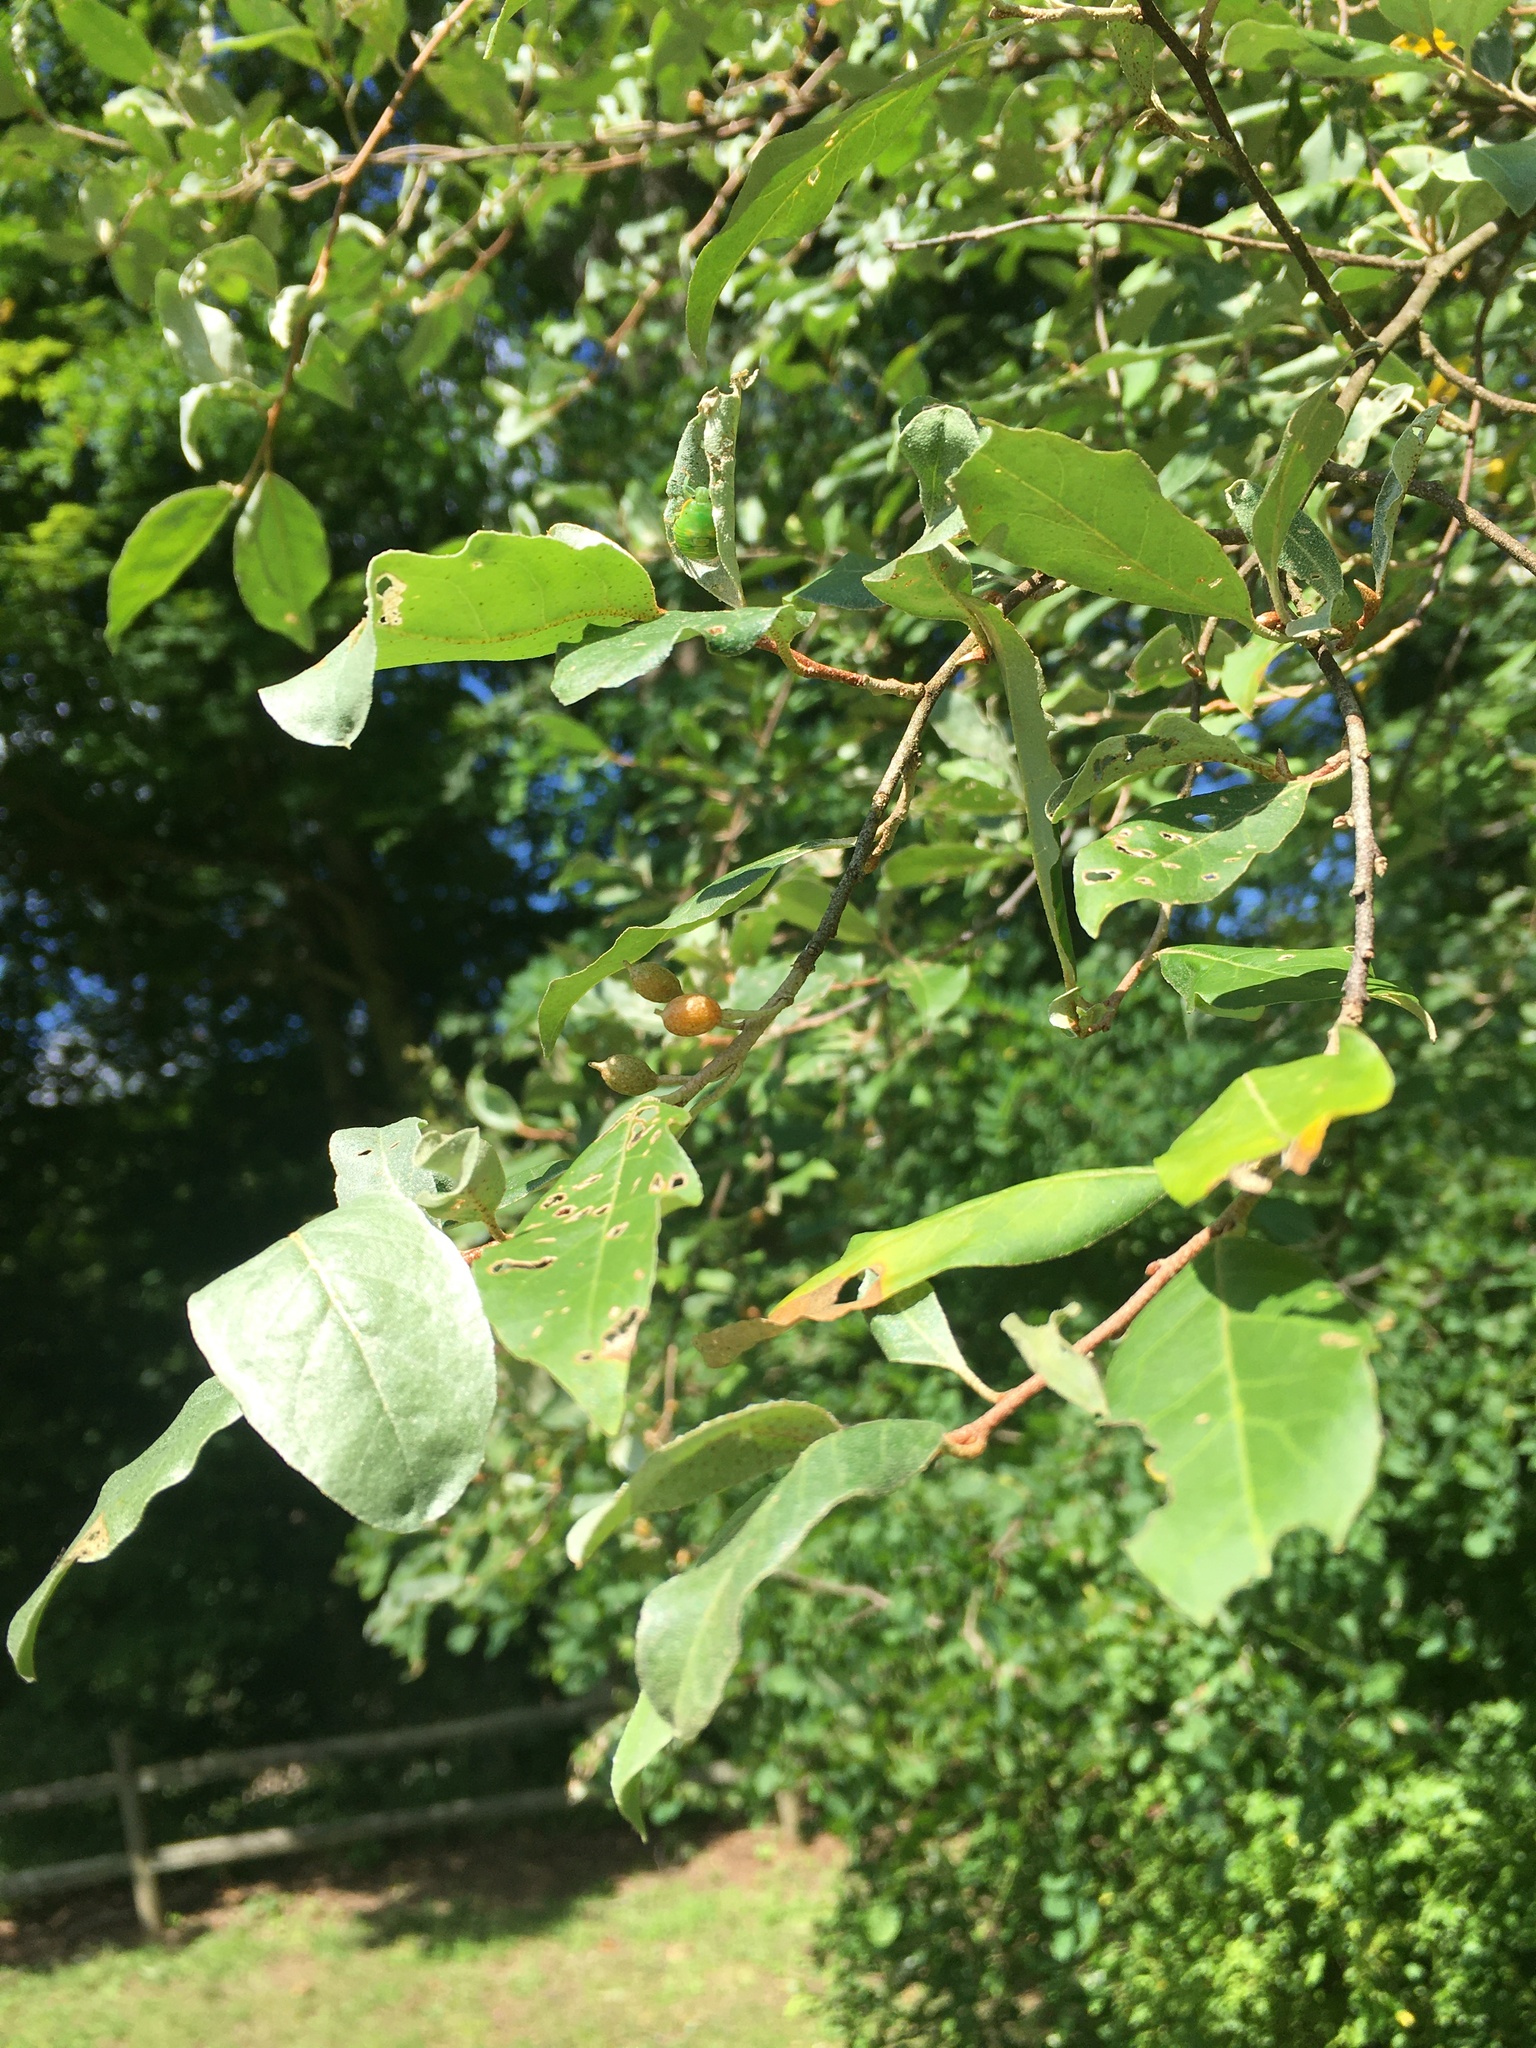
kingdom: Plantae
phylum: Tracheophyta
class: Magnoliopsida
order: Rosales
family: Elaeagnaceae
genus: Elaeagnus
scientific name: Elaeagnus umbellata
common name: Autumn olive
